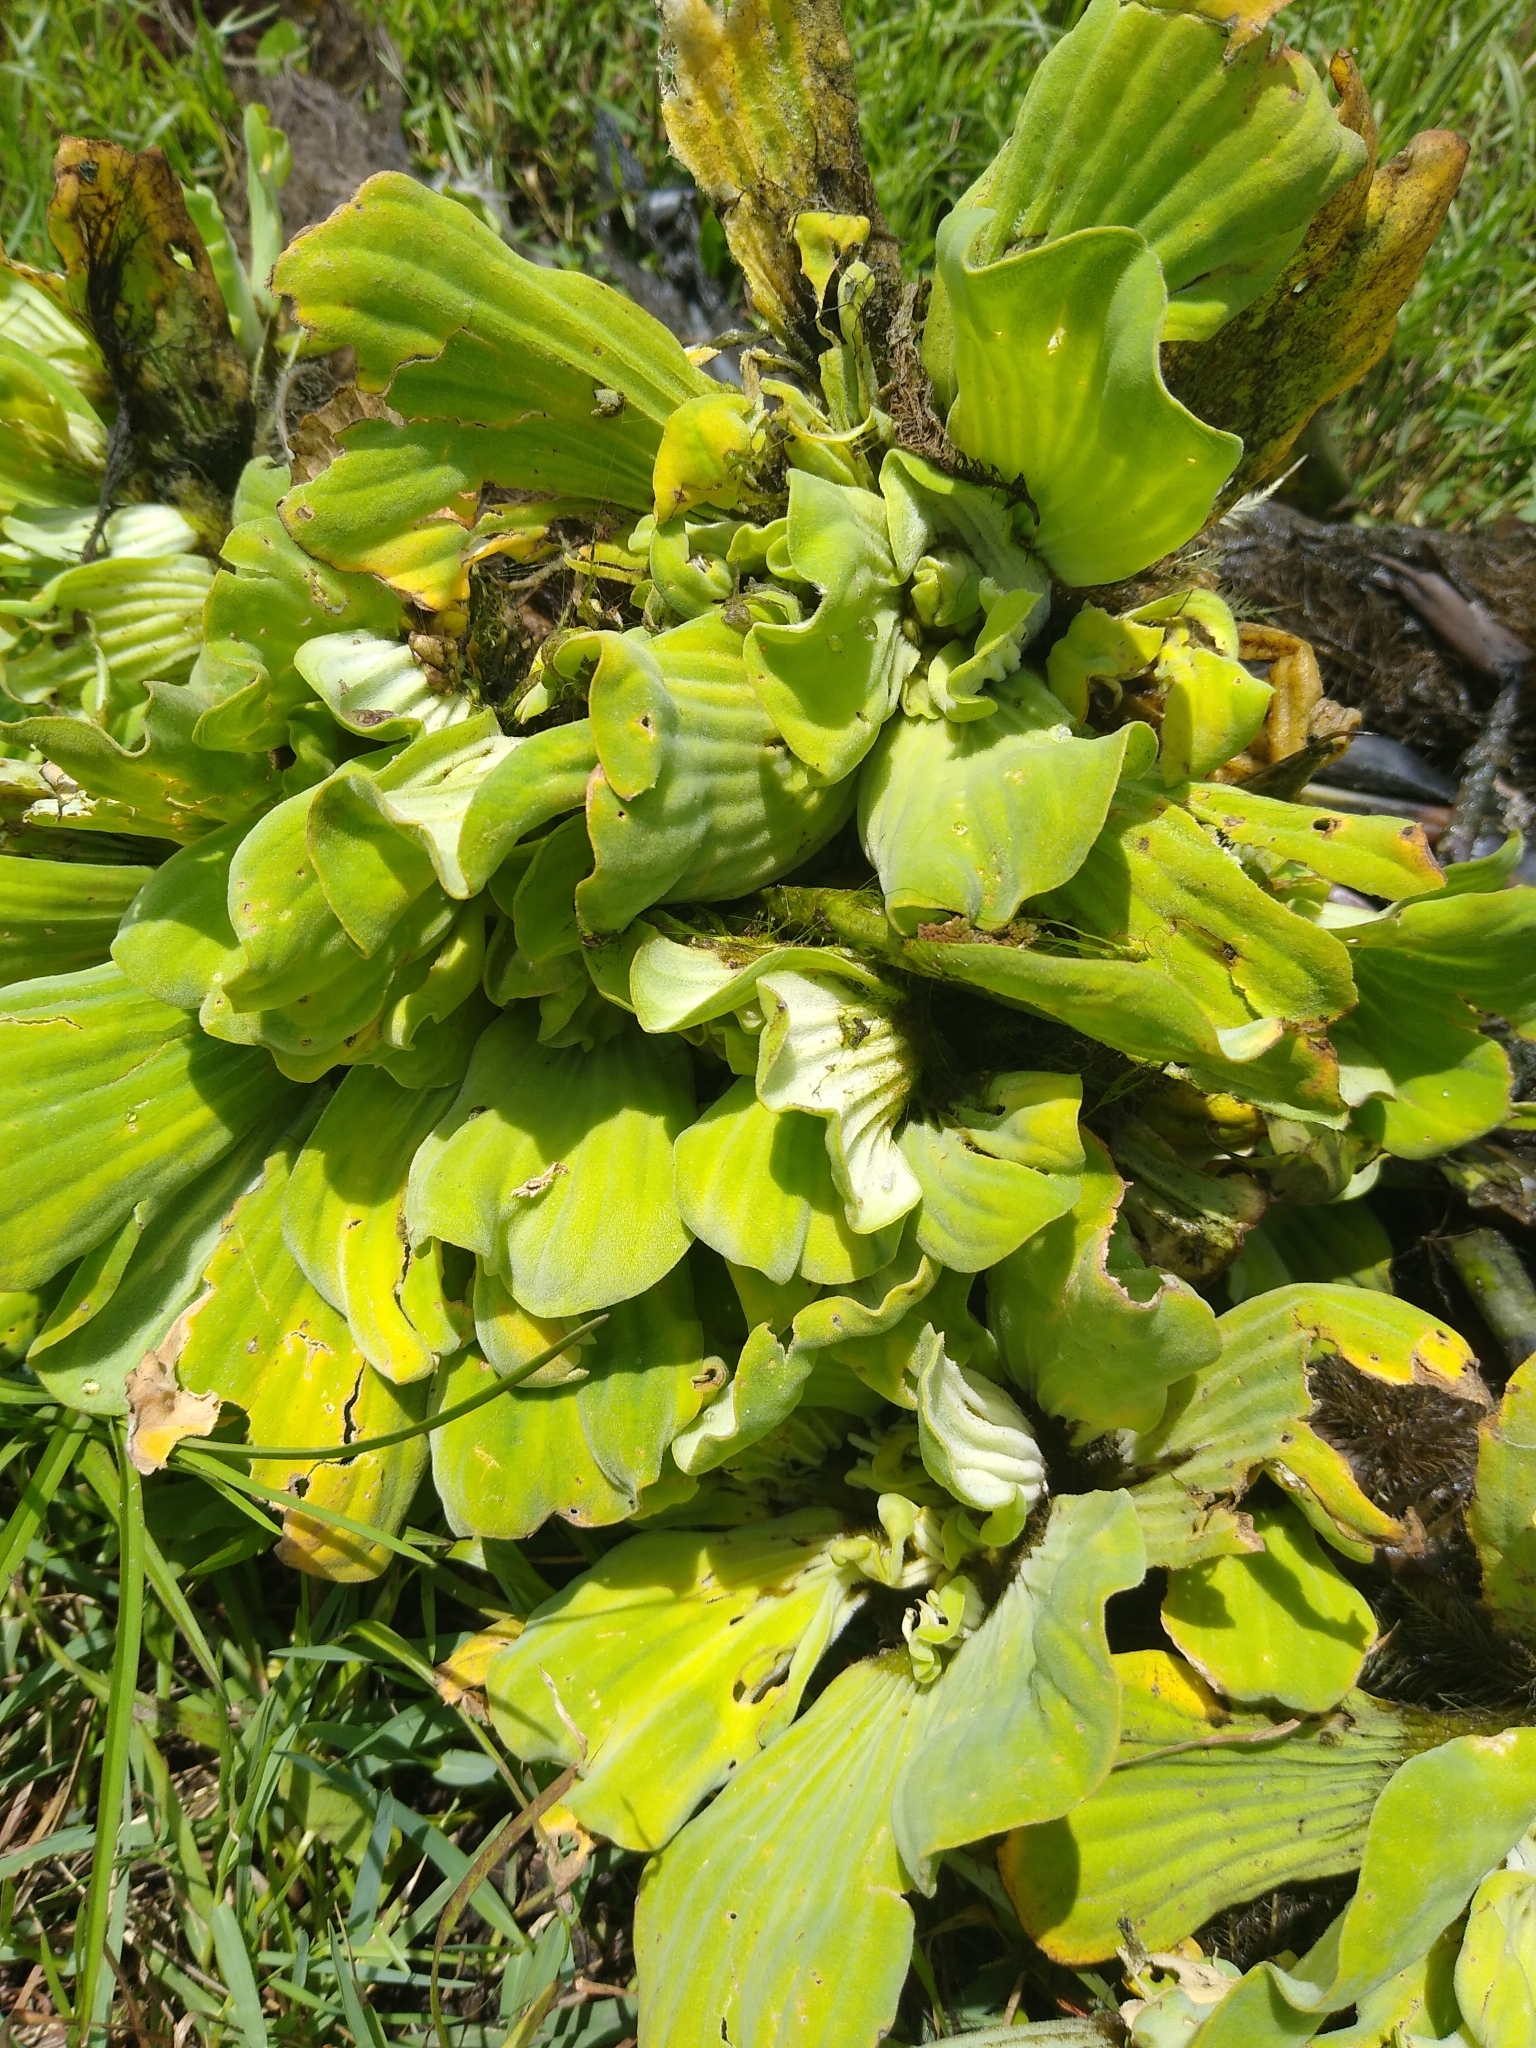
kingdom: Plantae
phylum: Tracheophyta
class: Liliopsida
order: Alismatales
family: Araceae
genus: Pistia
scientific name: Pistia stratiotes
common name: Water lettuce
